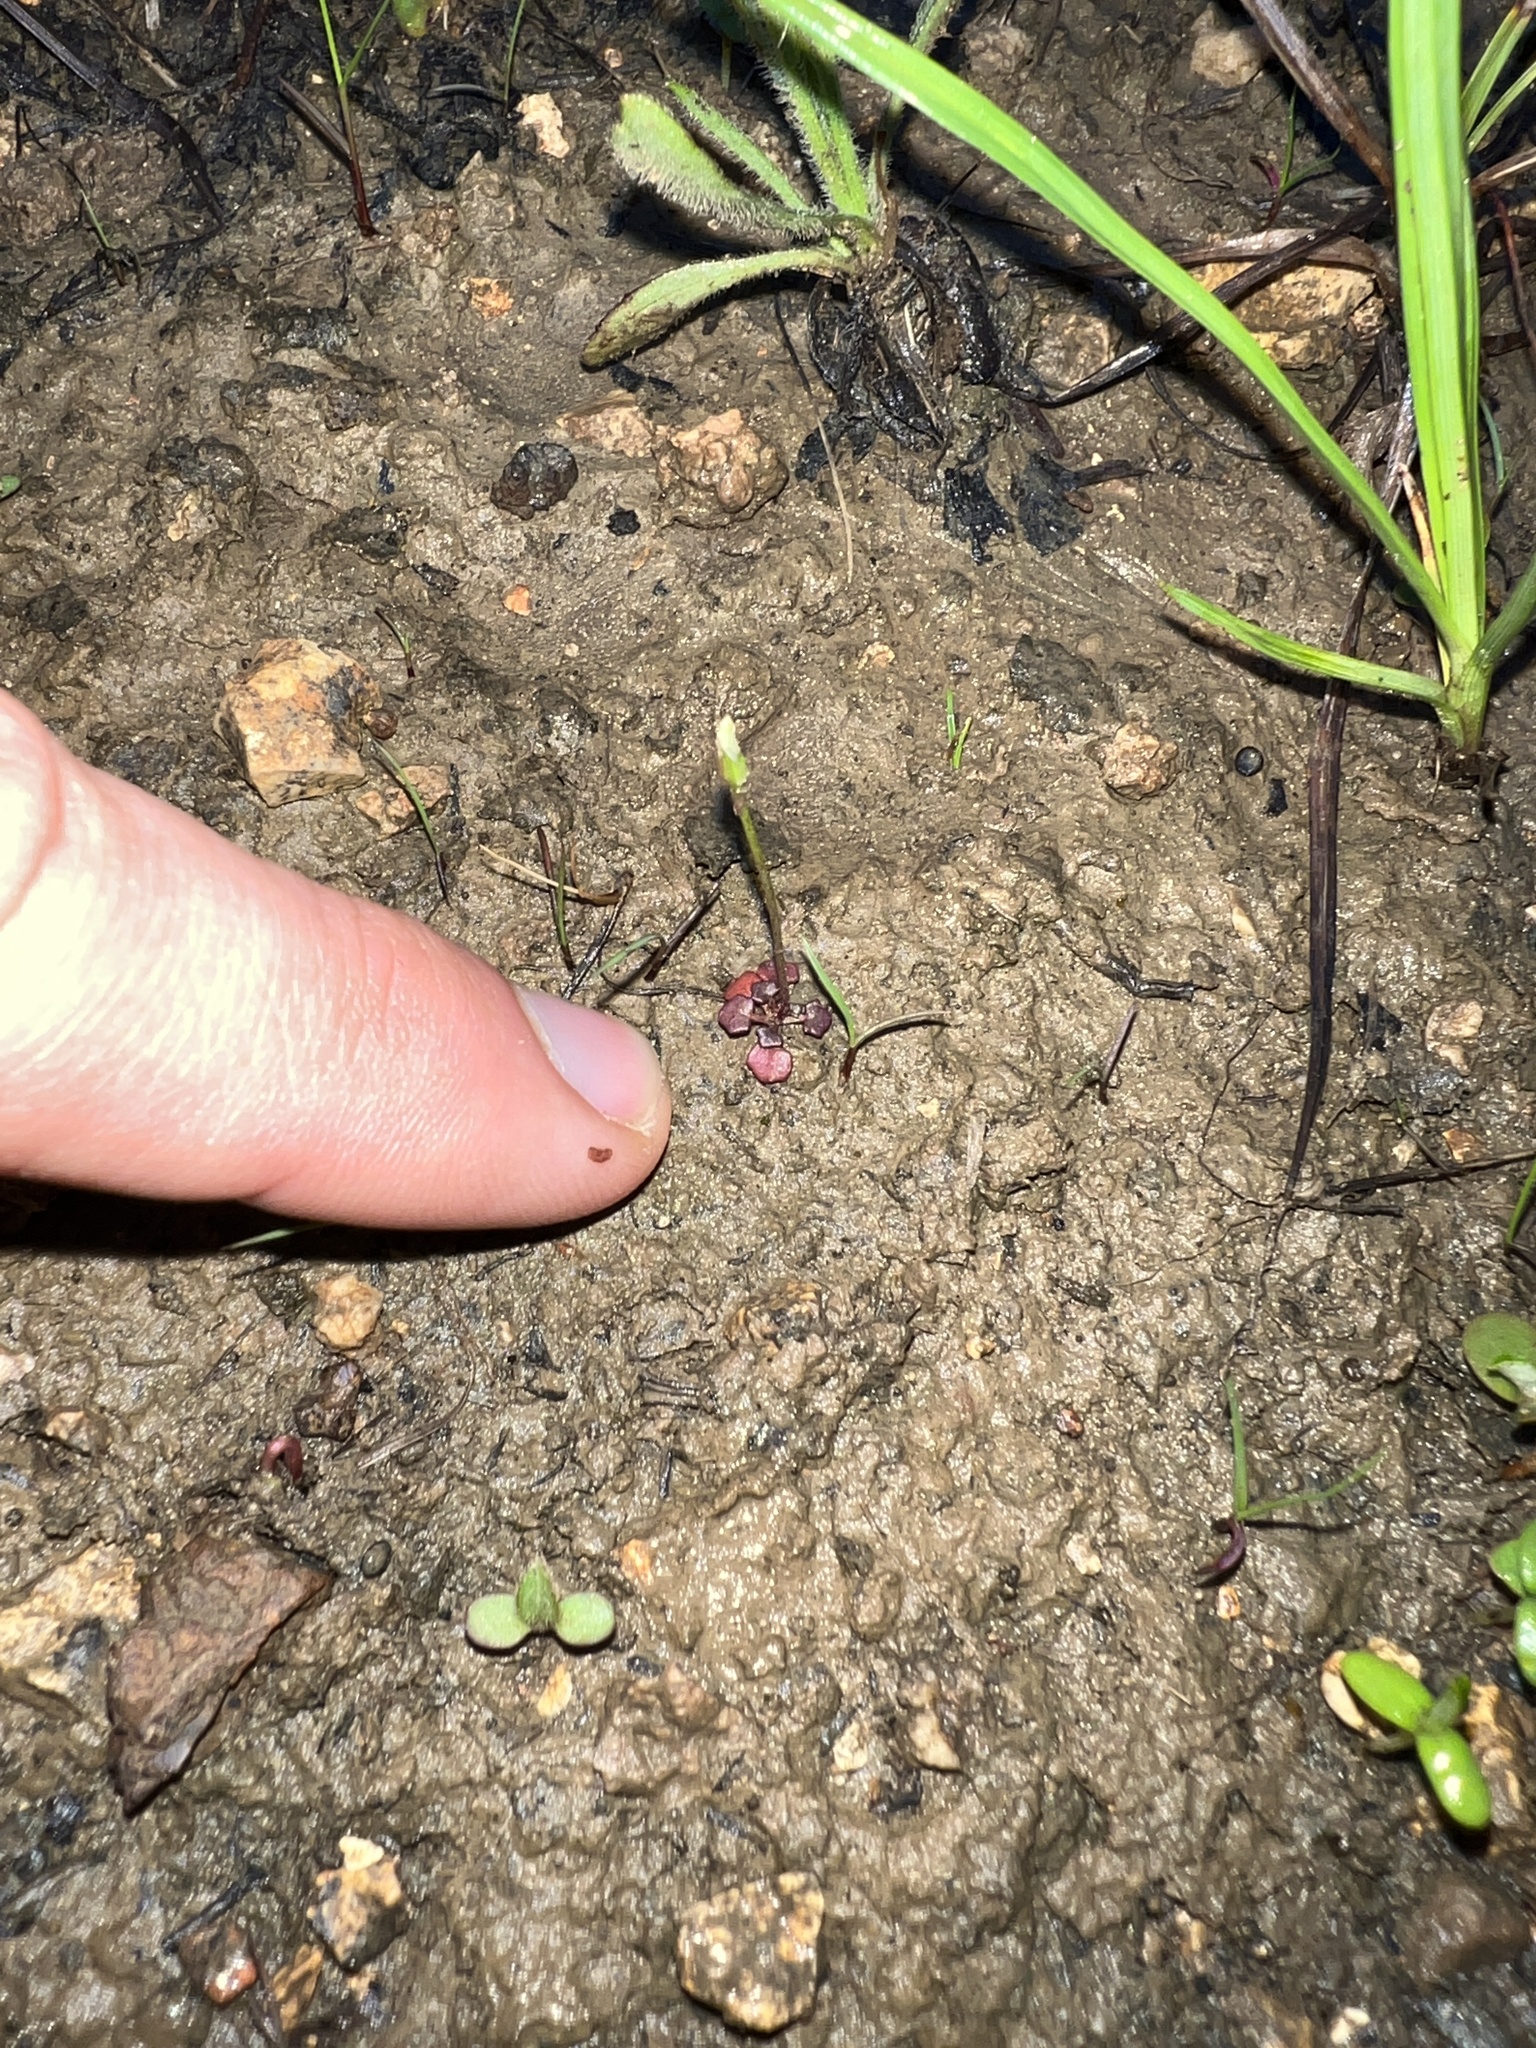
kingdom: Plantae
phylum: Tracheophyta
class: Magnoliopsida
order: Brassicales
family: Brassicaceae
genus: Leavenworthia
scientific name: Leavenworthia uniflora
